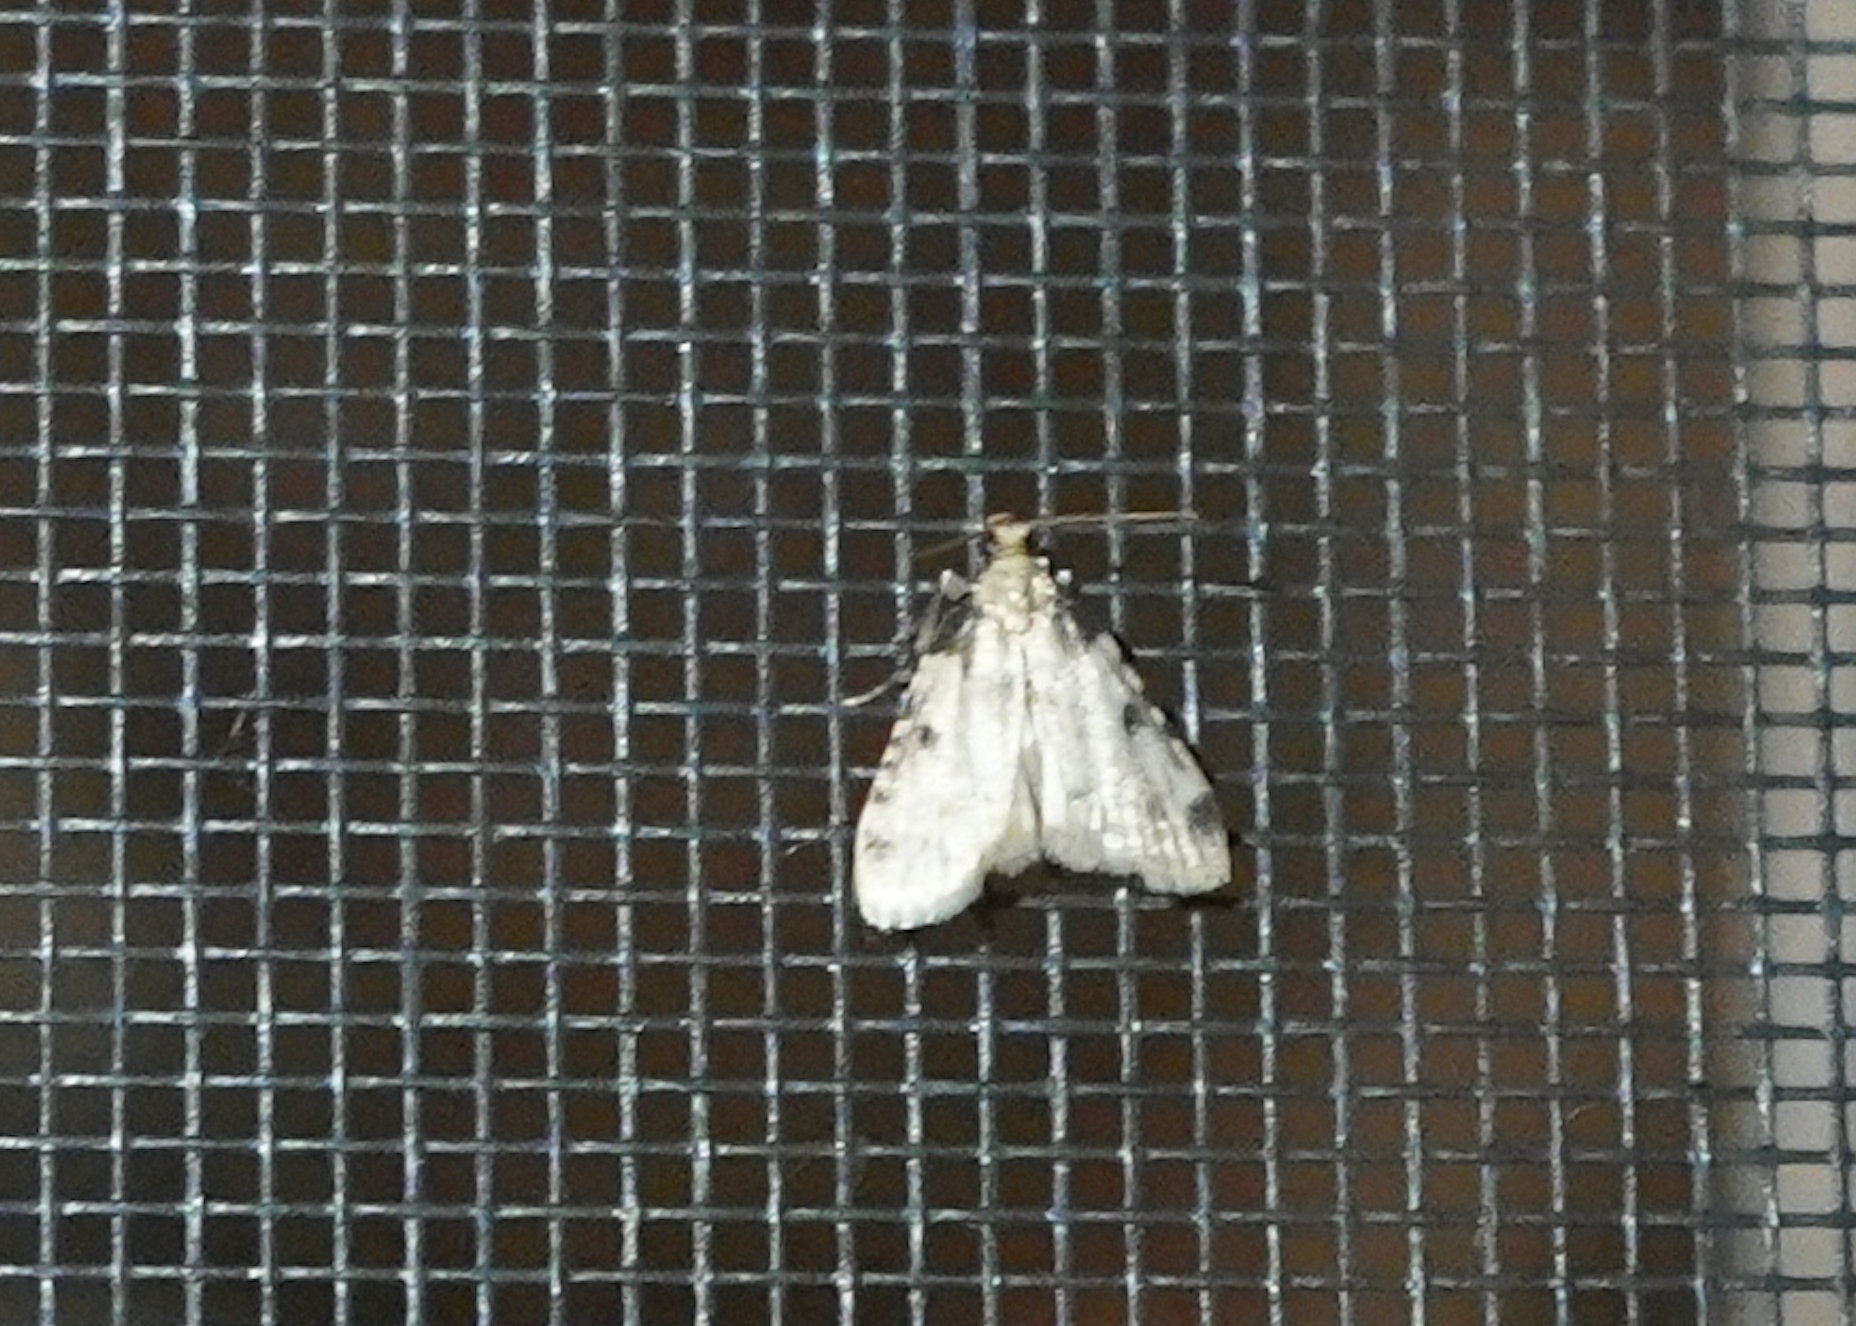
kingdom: Animalia
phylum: Arthropoda
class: Insecta
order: Lepidoptera
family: Pyralidae
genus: Aglossa
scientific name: Aglossa costiferalis
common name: Calico pyralid moth
